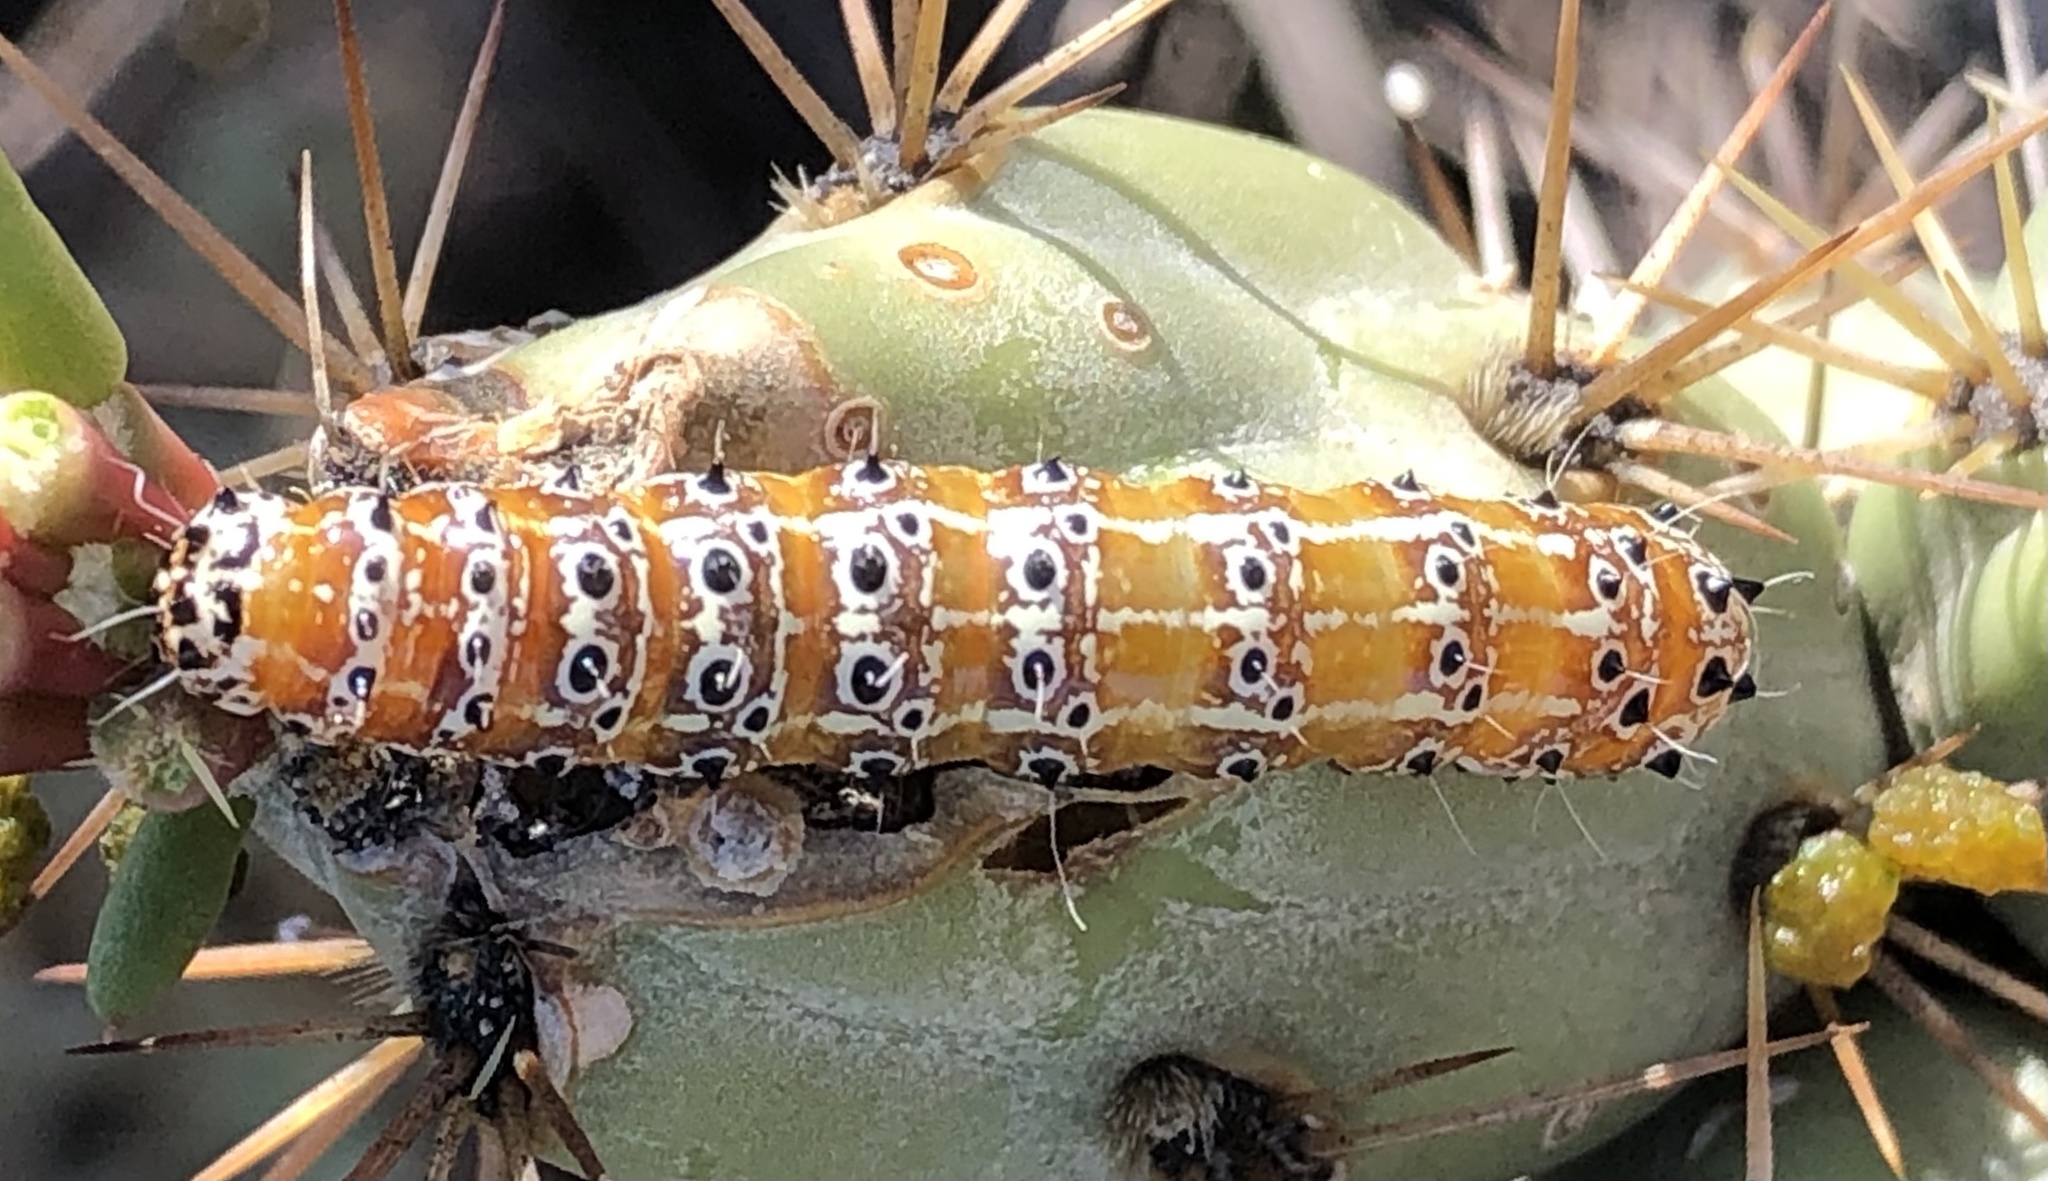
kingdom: Animalia
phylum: Arthropoda
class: Insecta
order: Lepidoptera
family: Noctuidae
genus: Euscirrhopterus
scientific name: Euscirrhopterus cosyra
